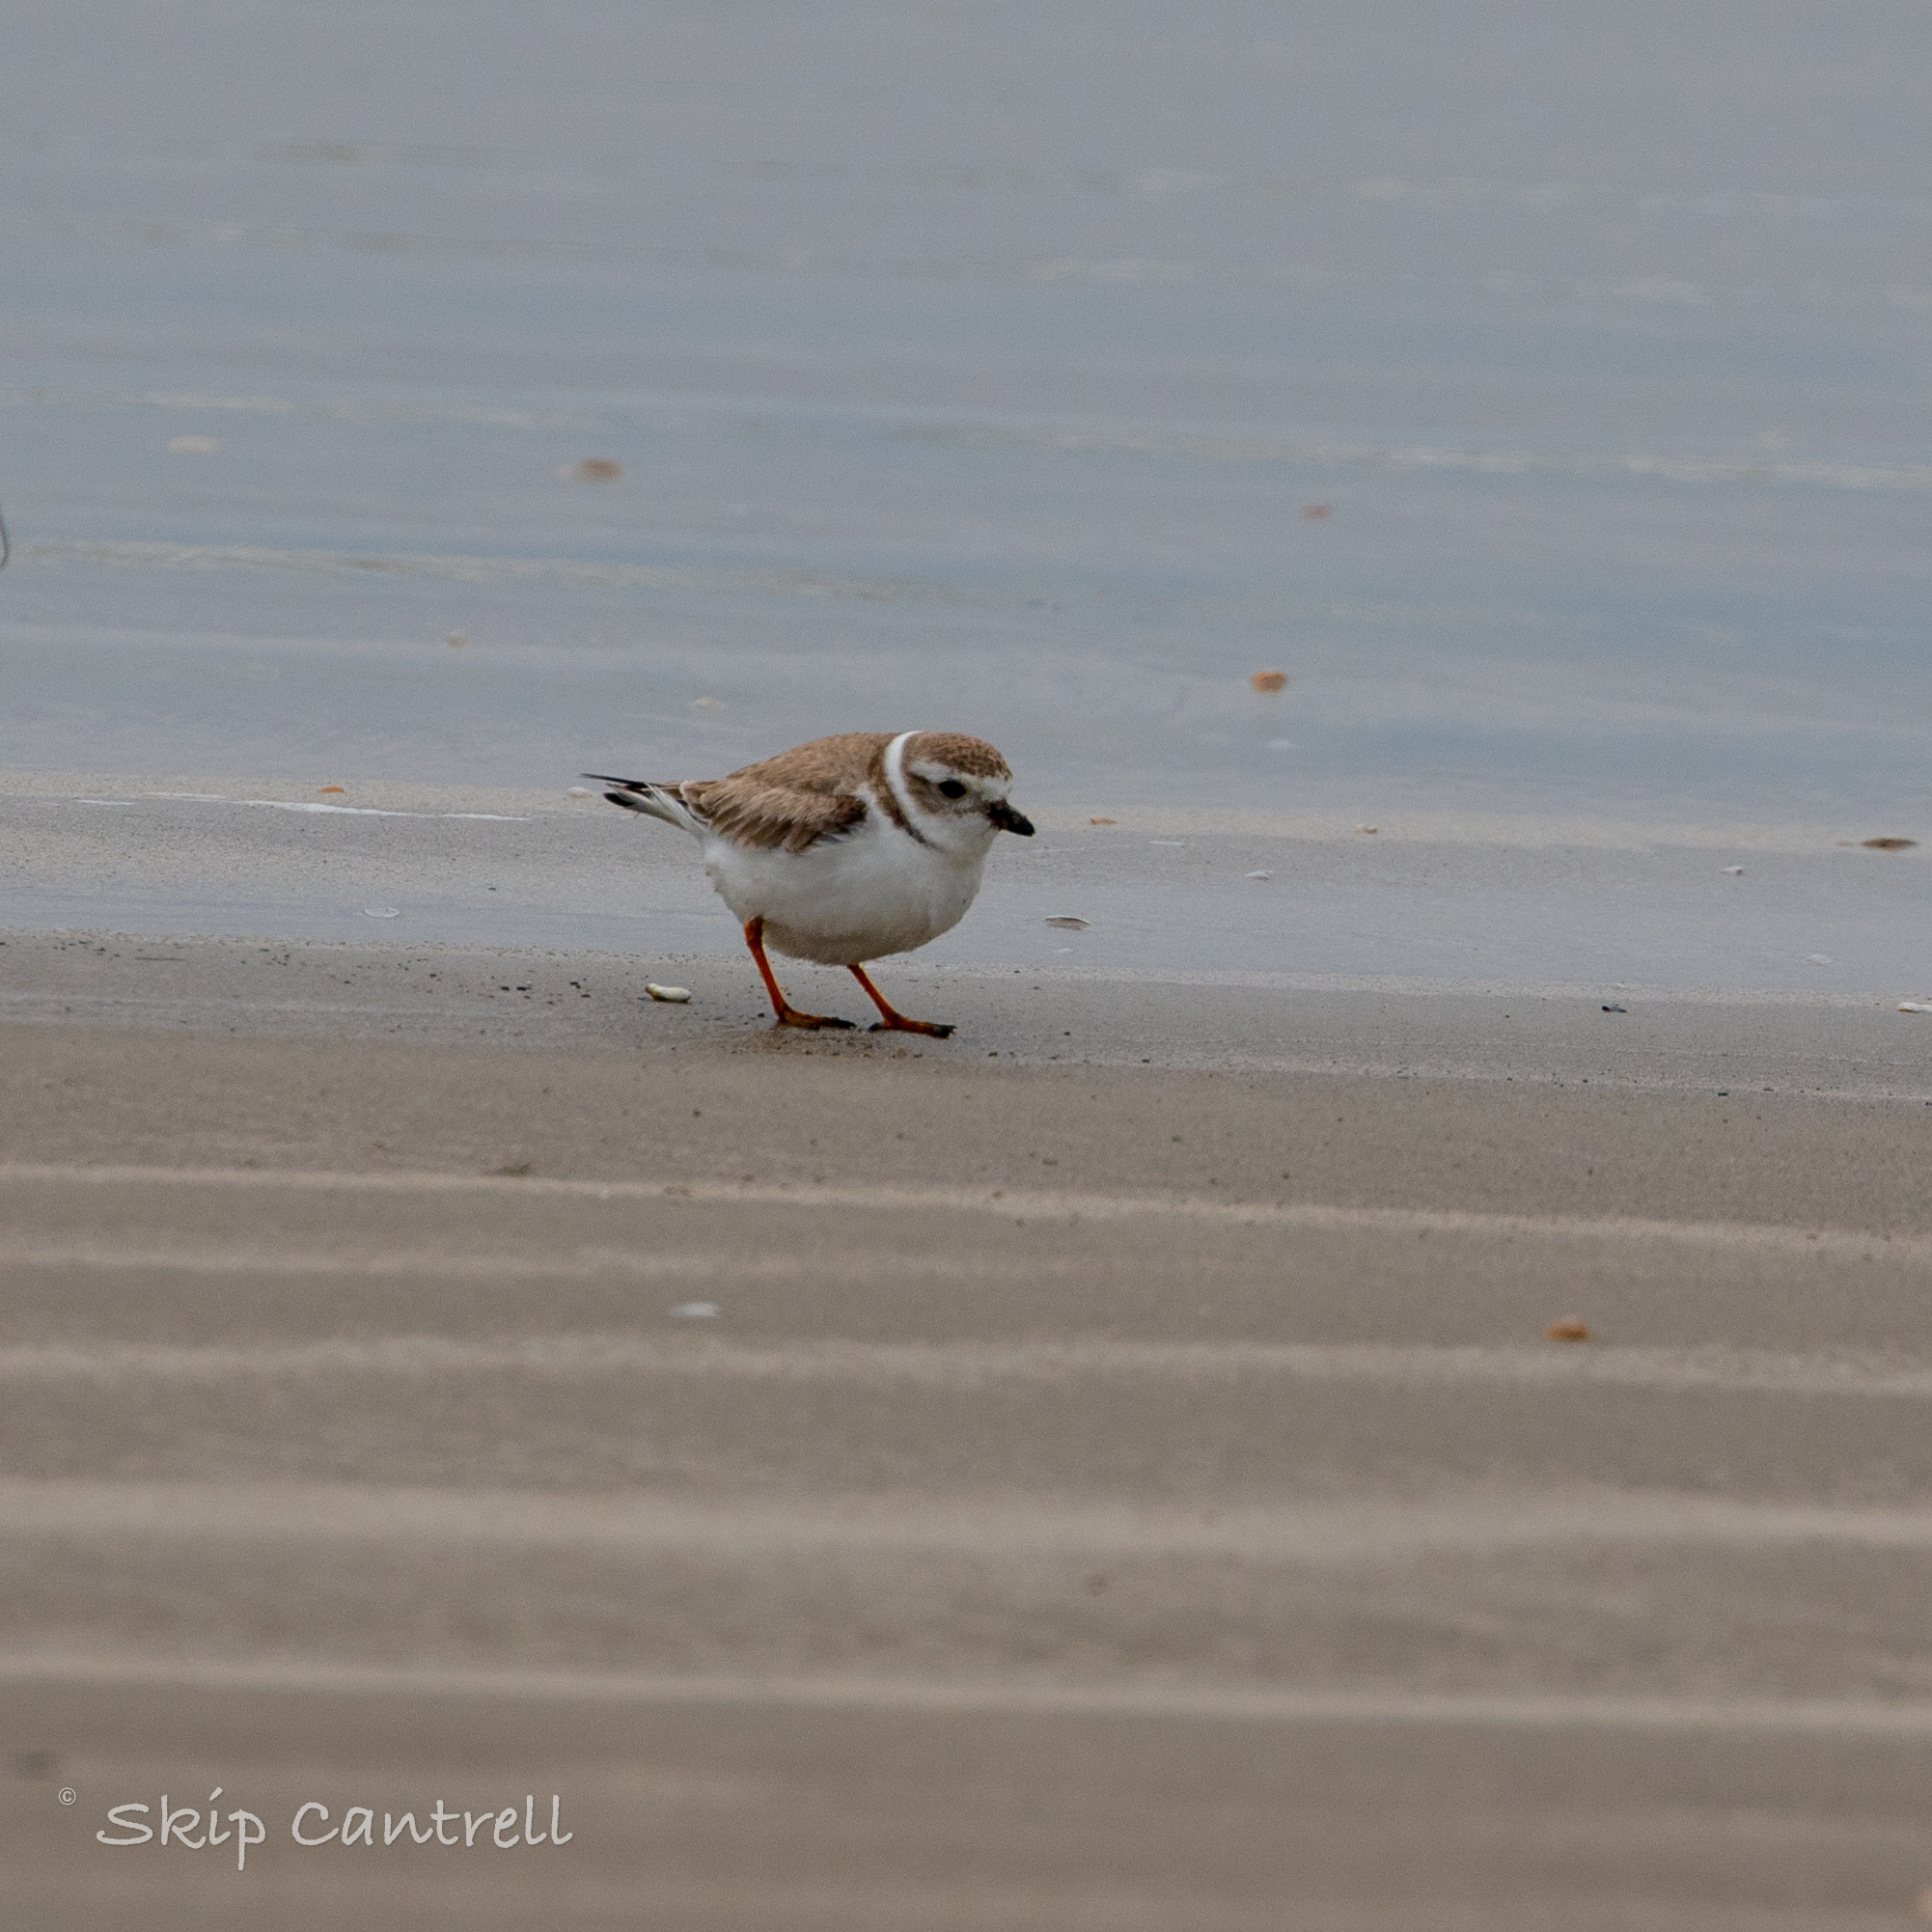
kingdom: Animalia
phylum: Chordata
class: Aves
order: Charadriiformes
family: Charadriidae
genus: Charadrius
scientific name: Charadrius melodus
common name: Piping plover
